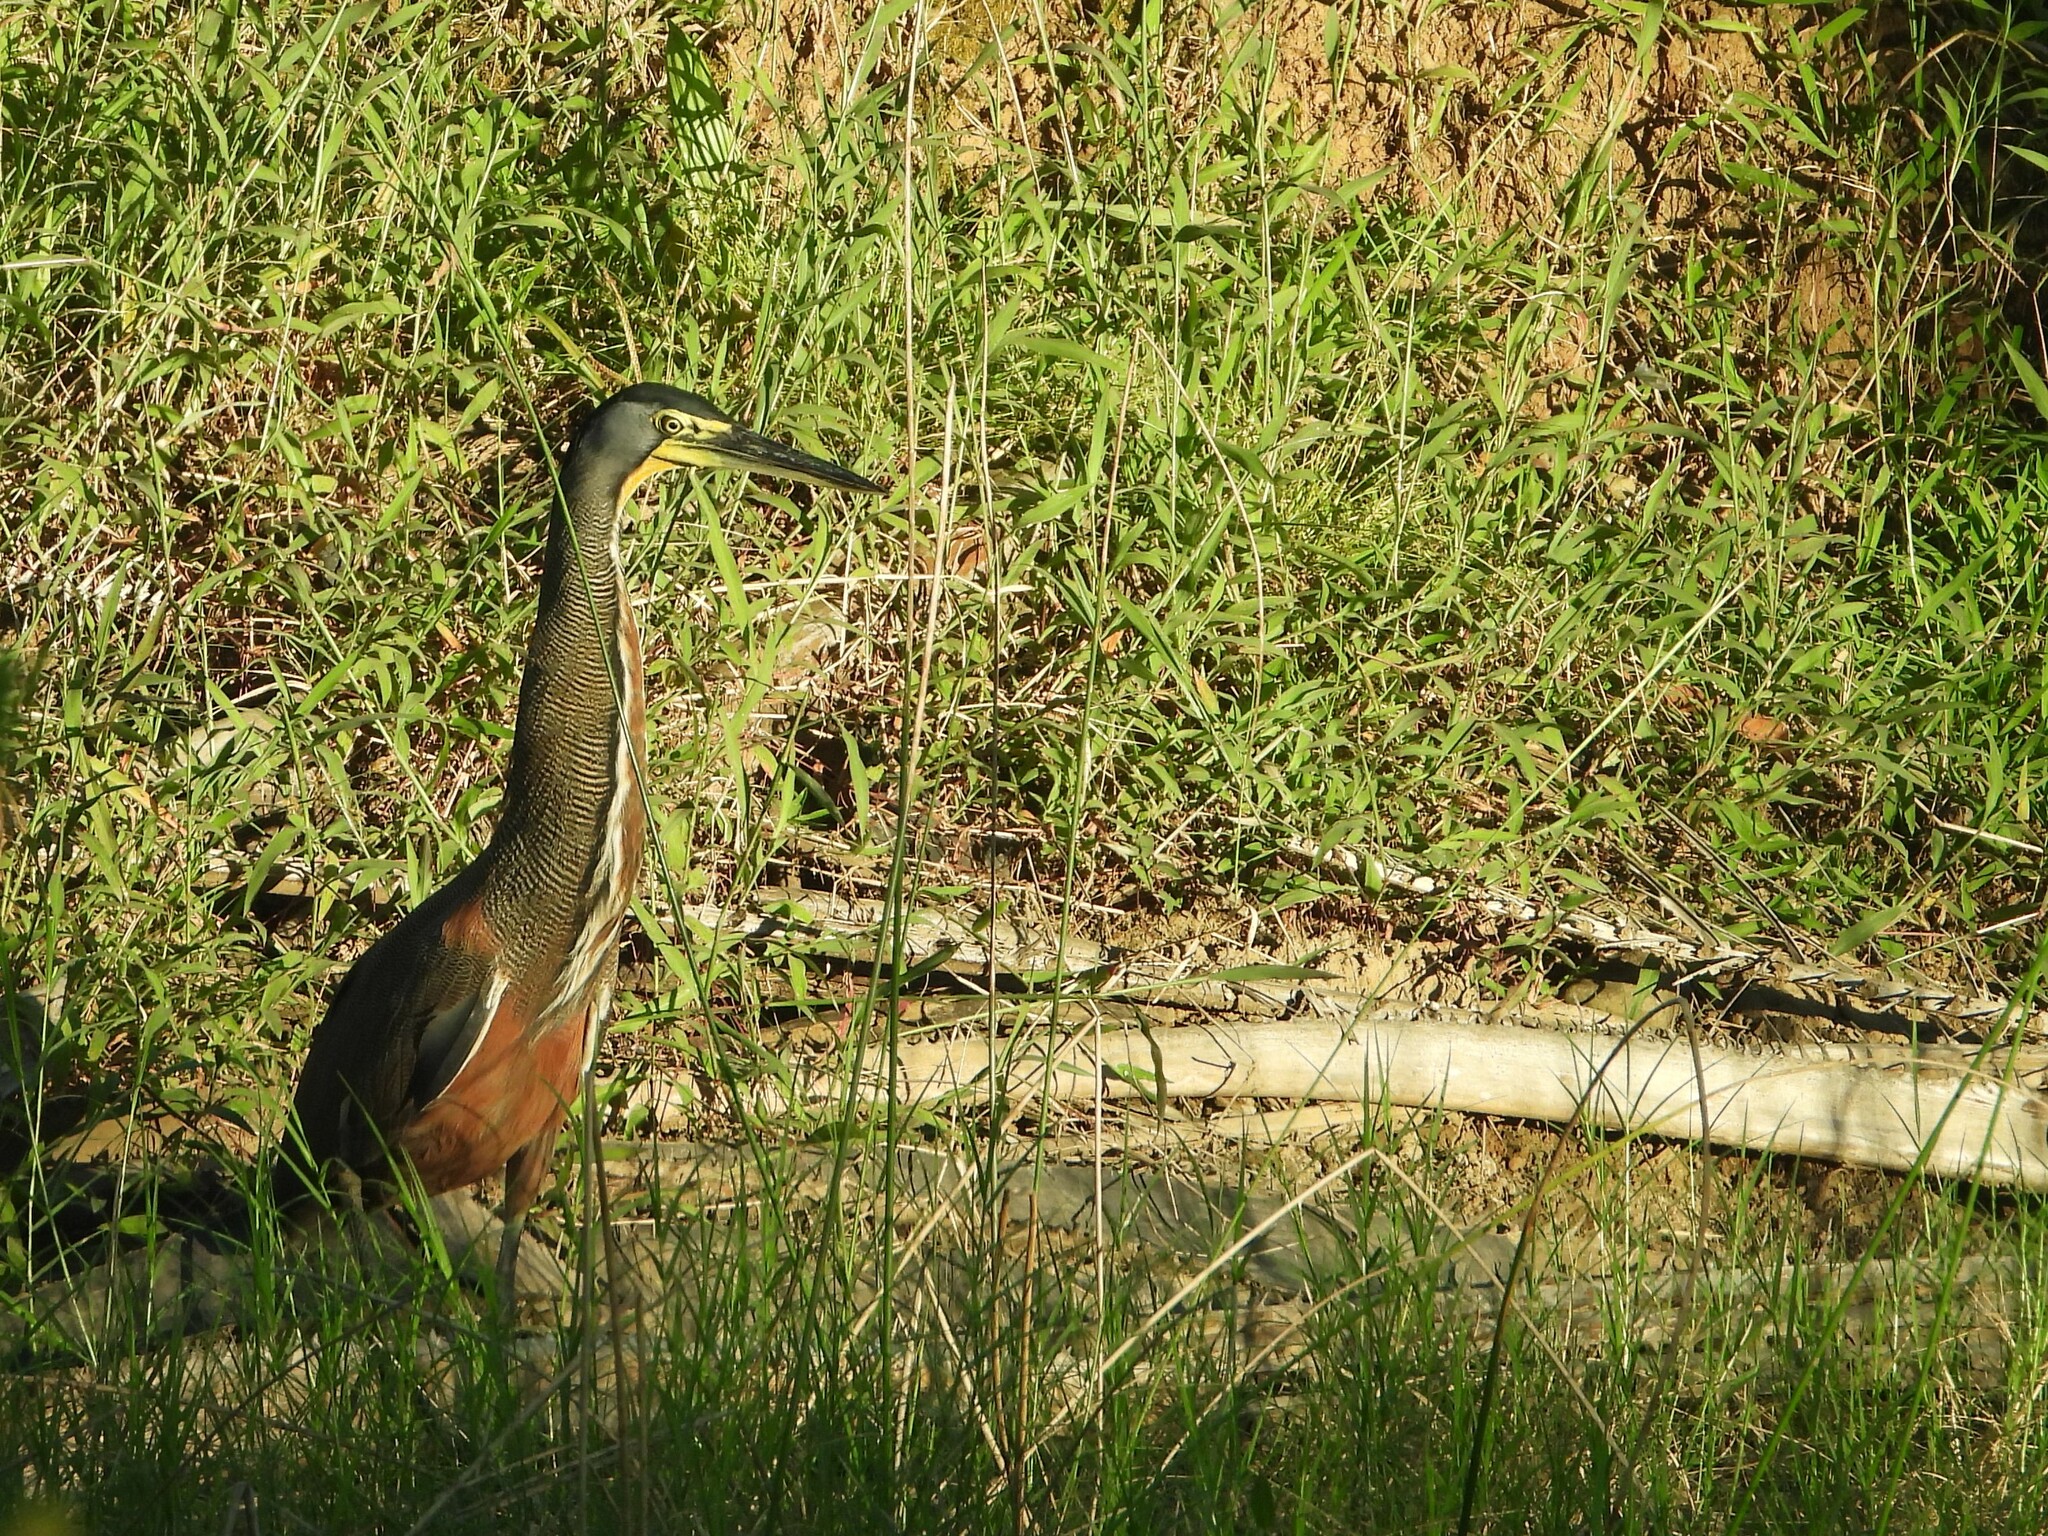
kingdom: Animalia
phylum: Chordata
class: Aves
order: Pelecaniformes
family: Ardeidae
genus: Tigrisoma
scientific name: Tigrisoma mexicanum
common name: Bare-throated tiger-heron
